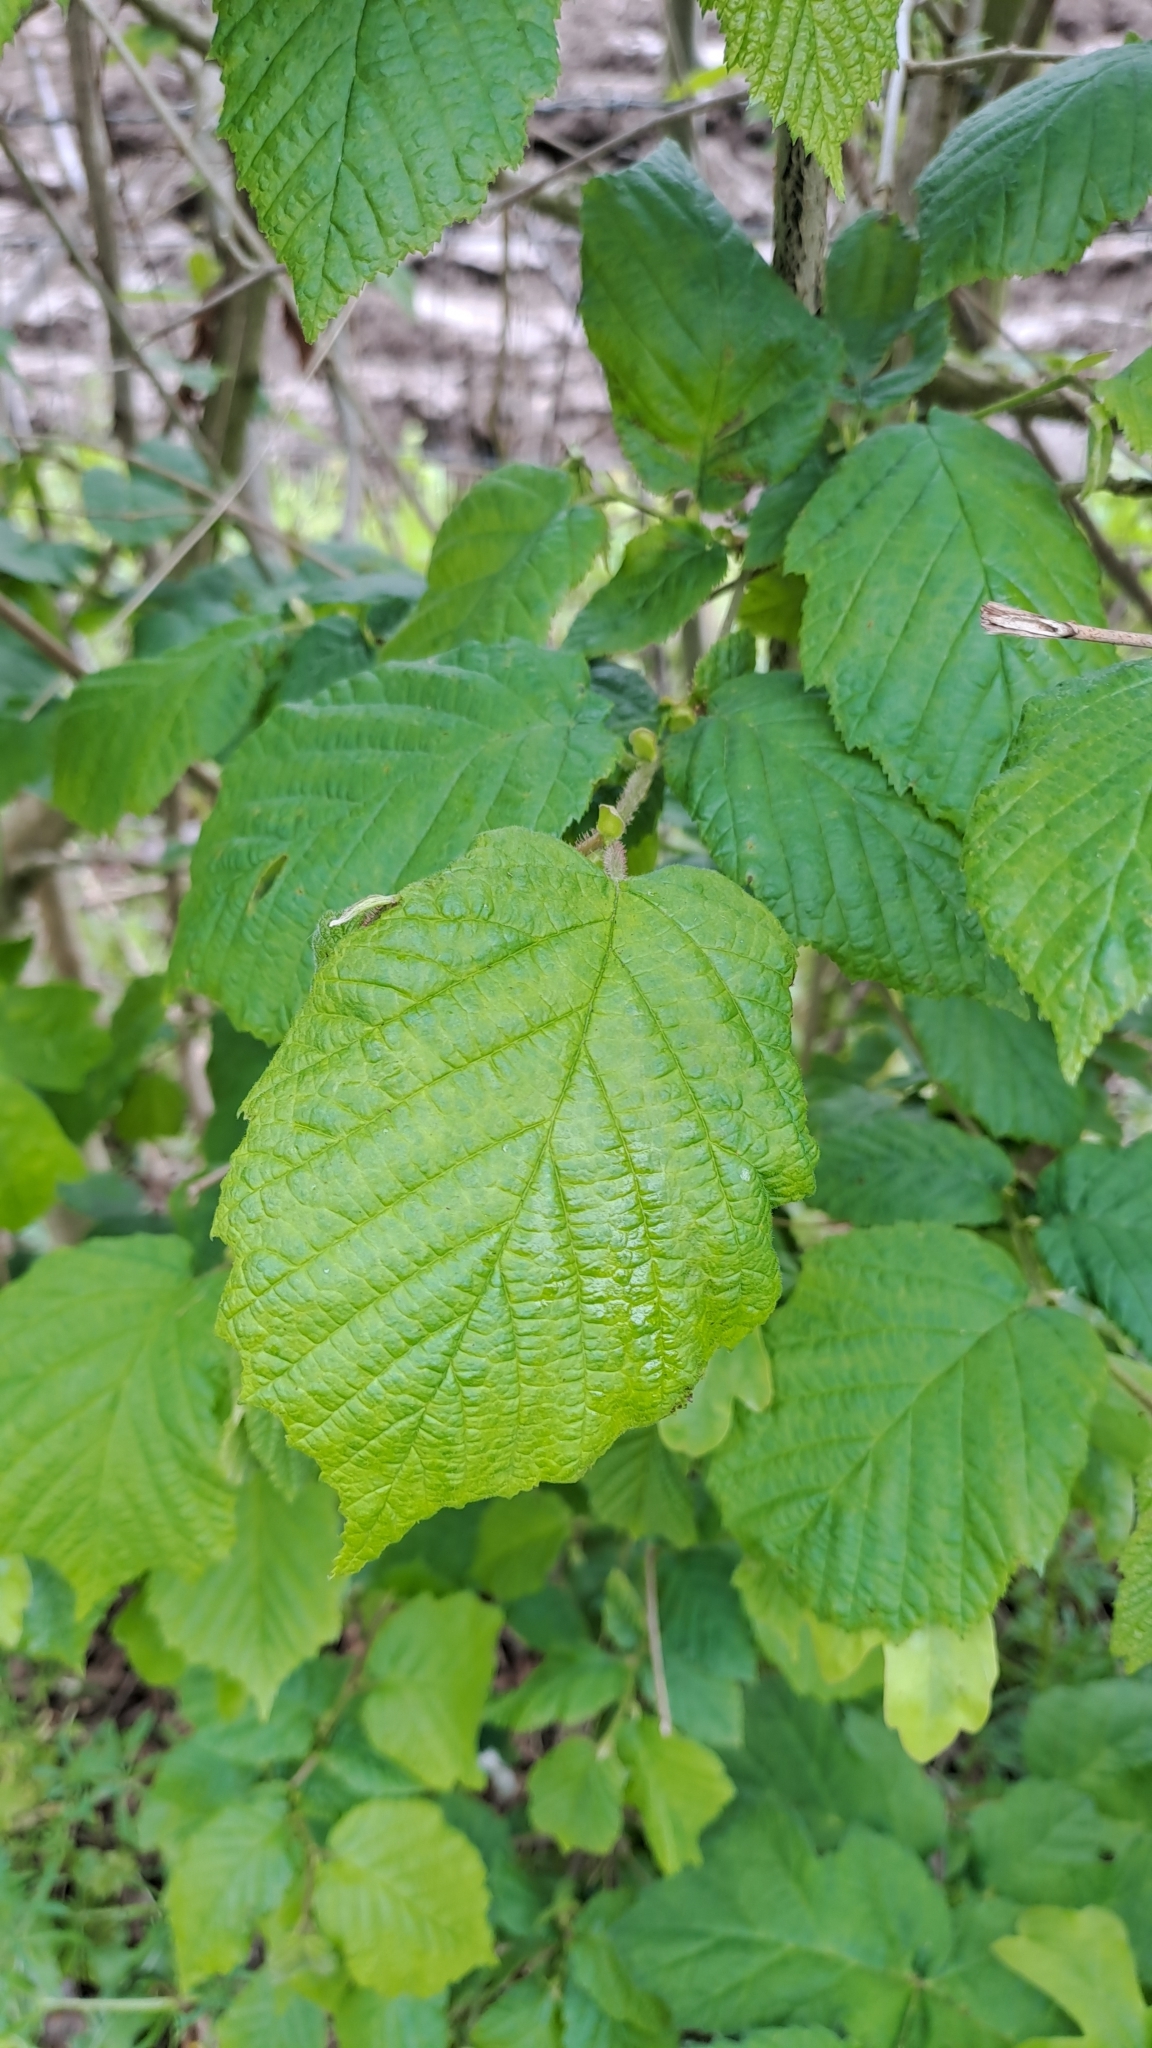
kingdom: Plantae
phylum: Tracheophyta
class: Magnoliopsida
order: Fagales
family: Betulaceae
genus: Corylus
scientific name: Corylus avellana
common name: European hazel
